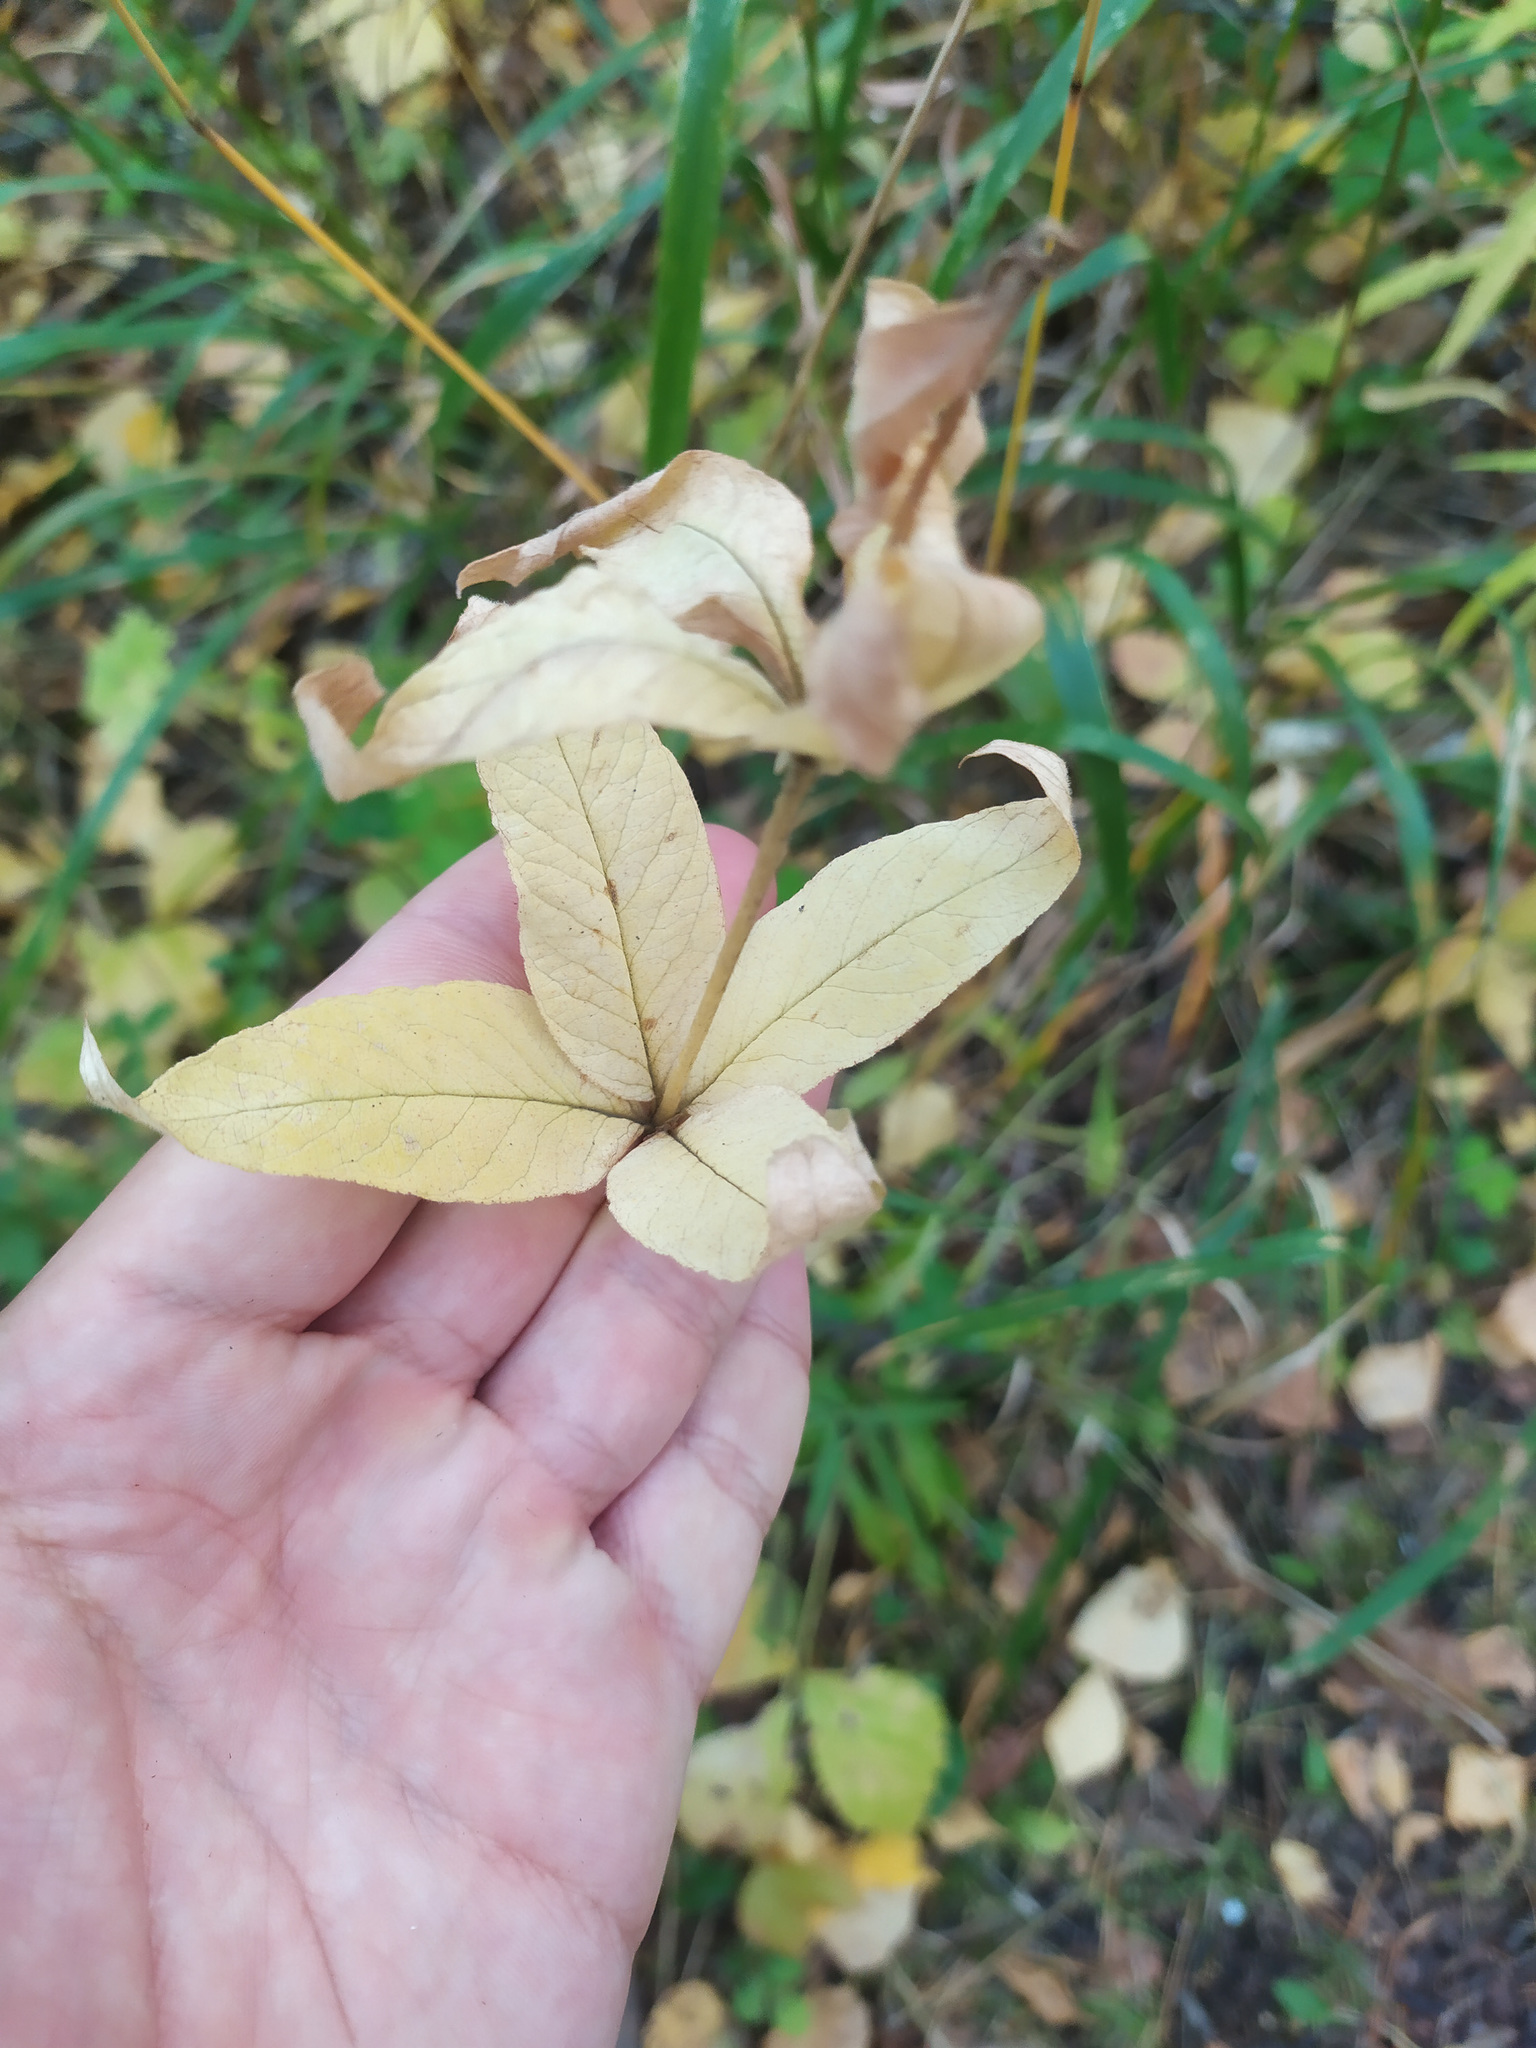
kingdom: Plantae
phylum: Tracheophyta
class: Magnoliopsida
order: Ericales
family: Primulaceae
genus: Lysimachia
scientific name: Lysimachia vulgaris
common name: Yellow loosestrife
